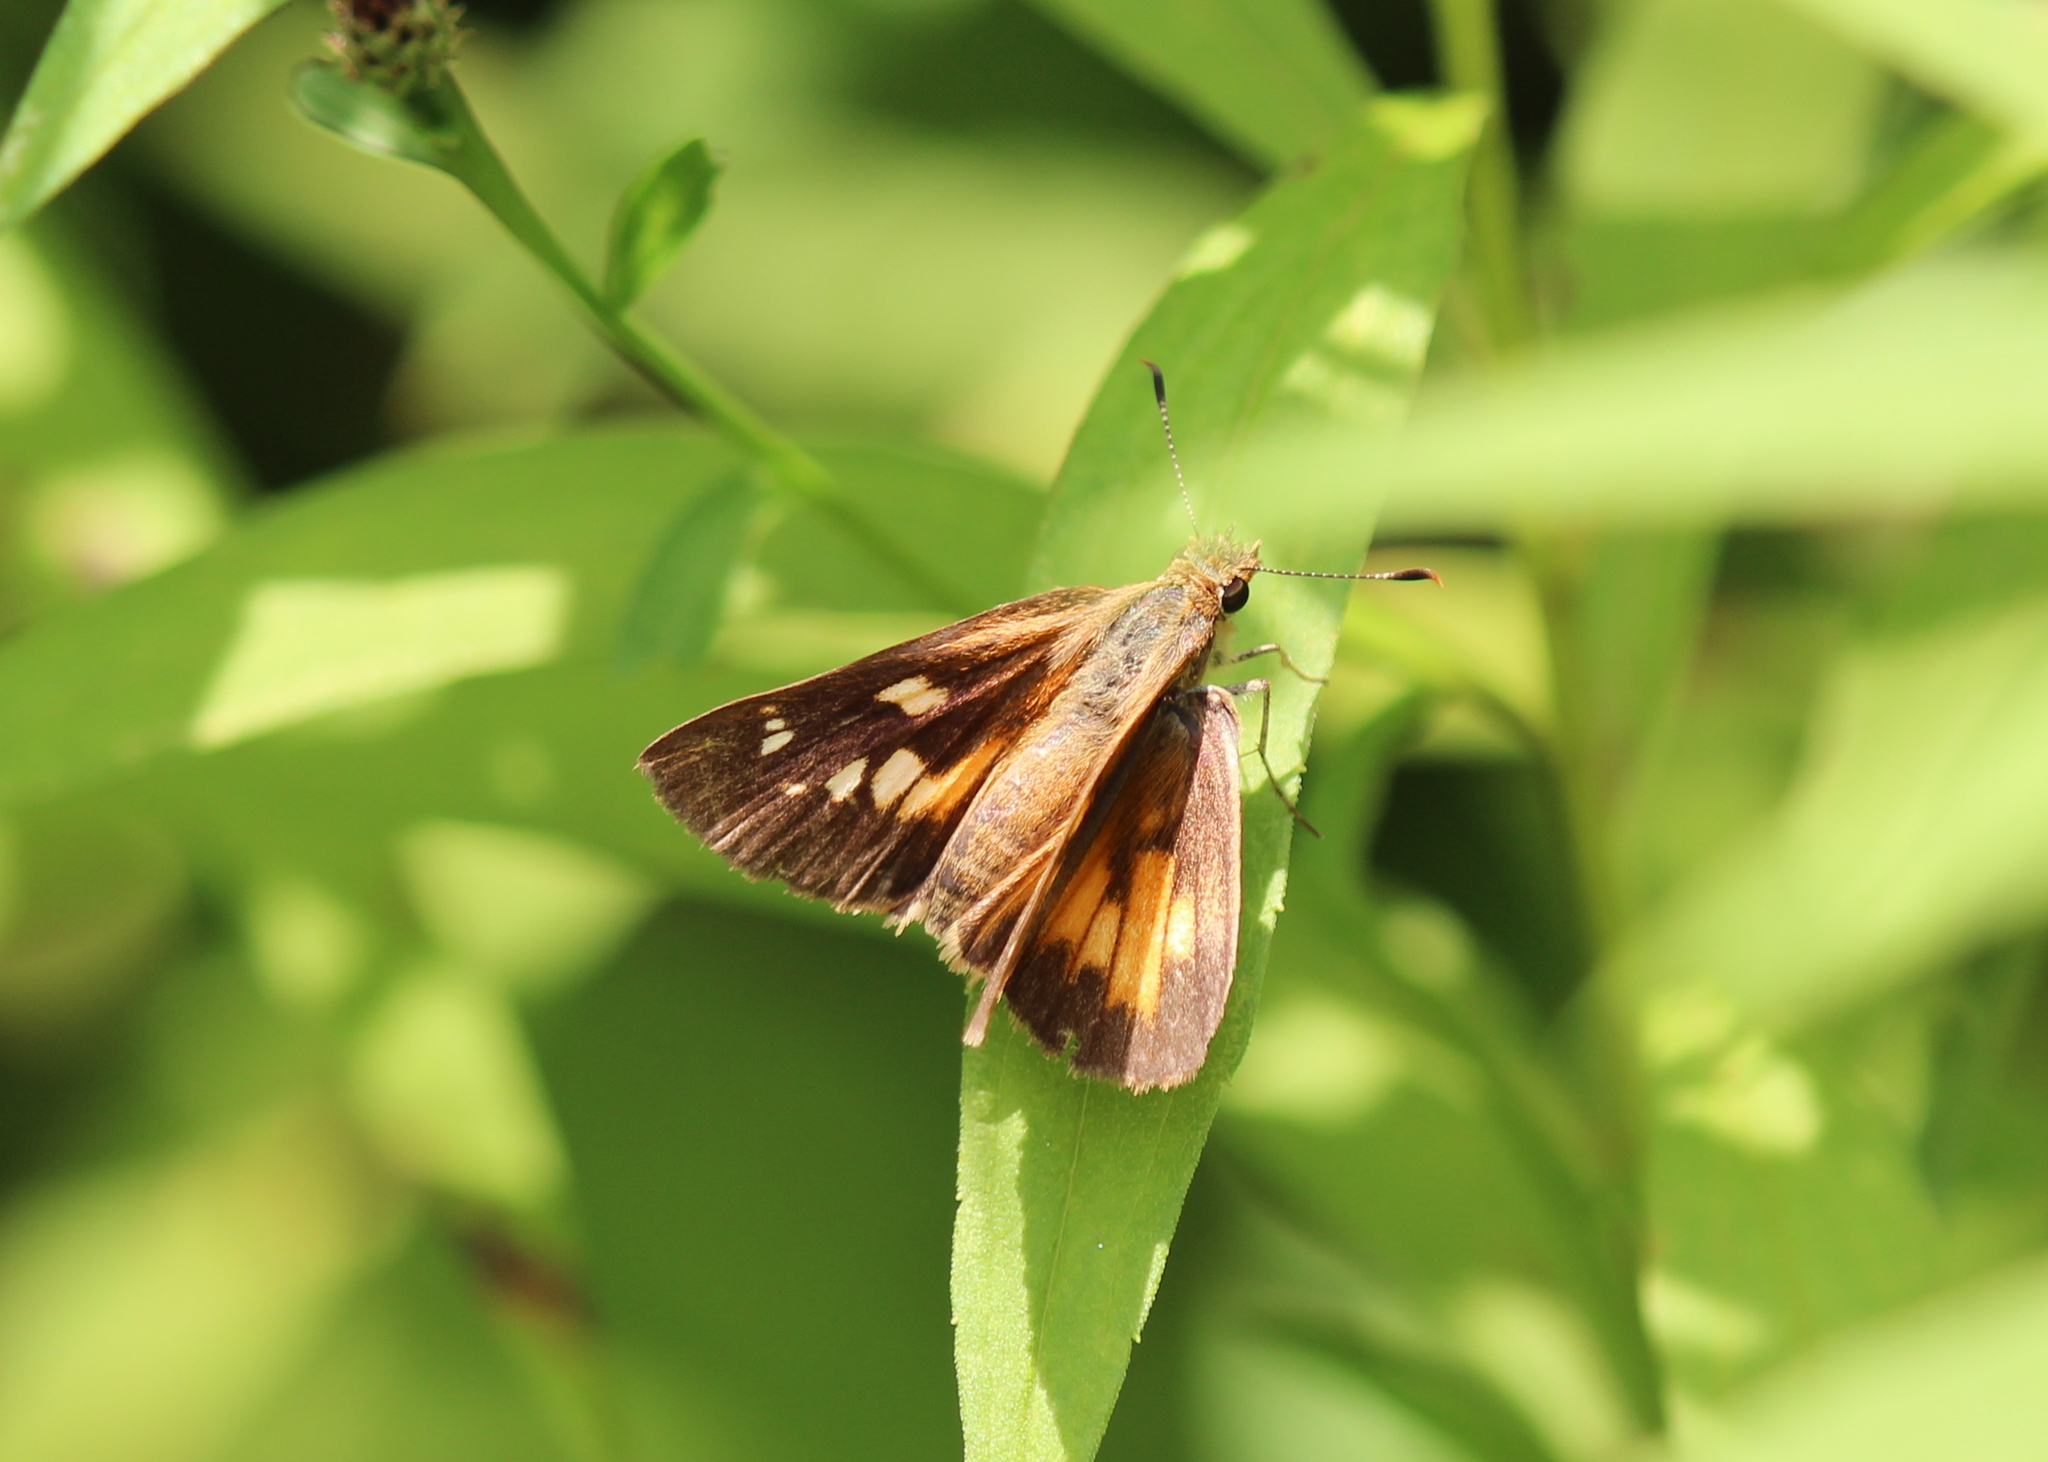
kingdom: Animalia
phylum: Arthropoda
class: Insecta
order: Lepidoptera
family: Hesperiidae
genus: Poanes
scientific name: Poanes viator
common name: Broad-winged skipper
